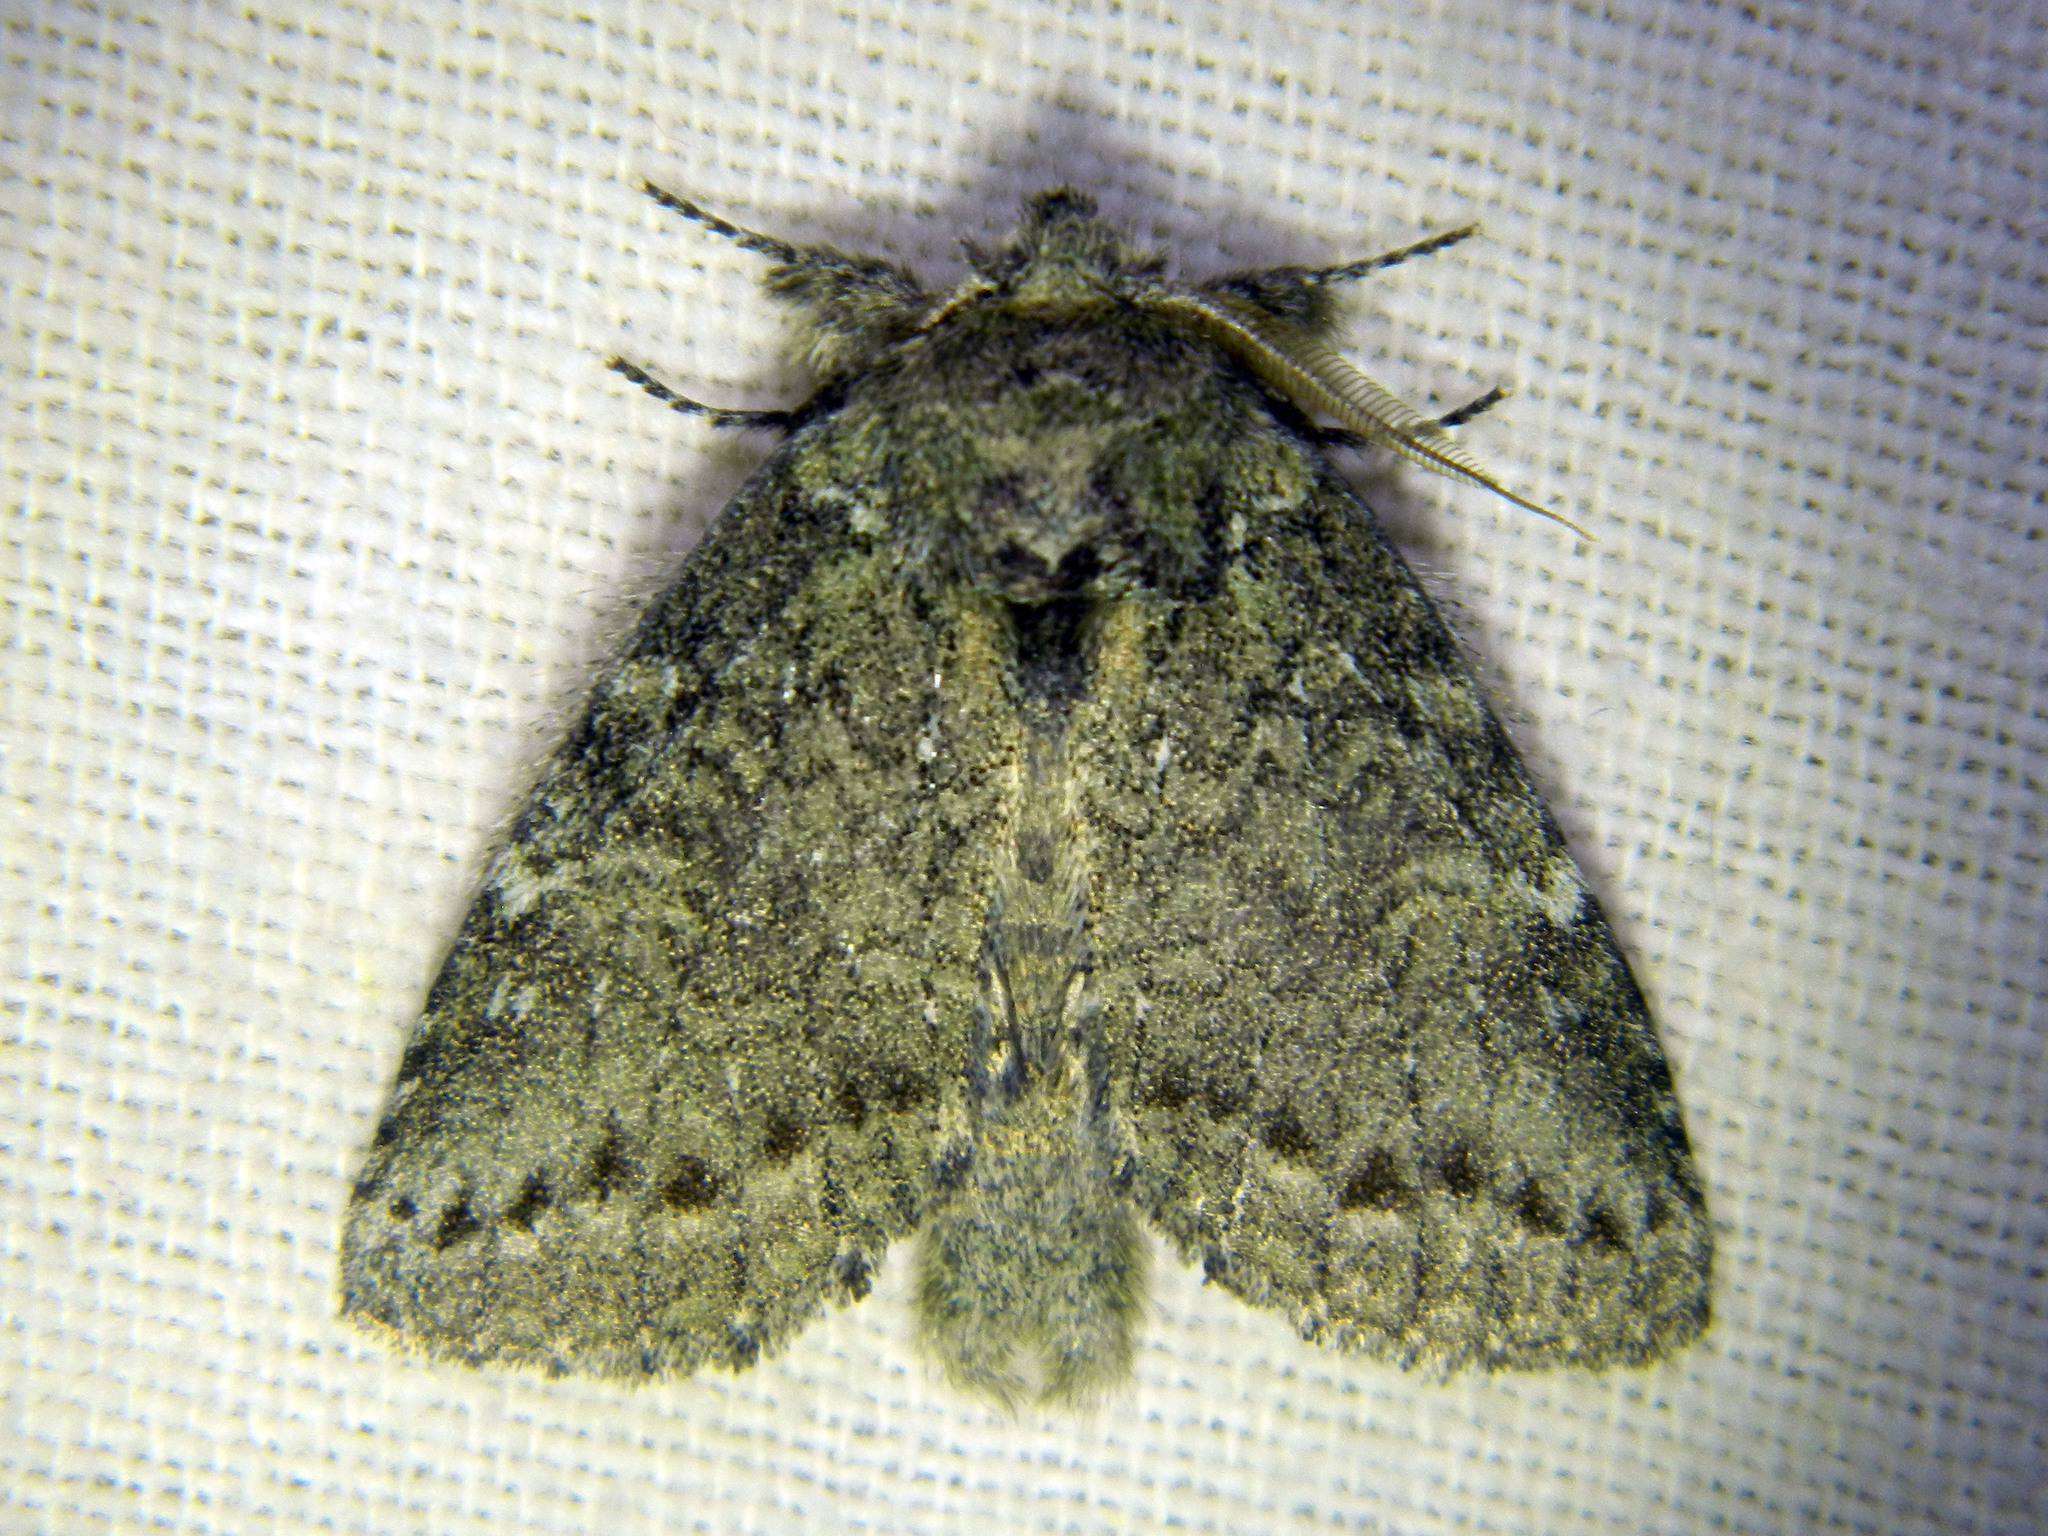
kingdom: Animalia
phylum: Arthropoda
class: Insecta
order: Lepidoptera
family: Notodontidae
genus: Disphragis
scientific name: Disphragis Cecrita guttivitta
